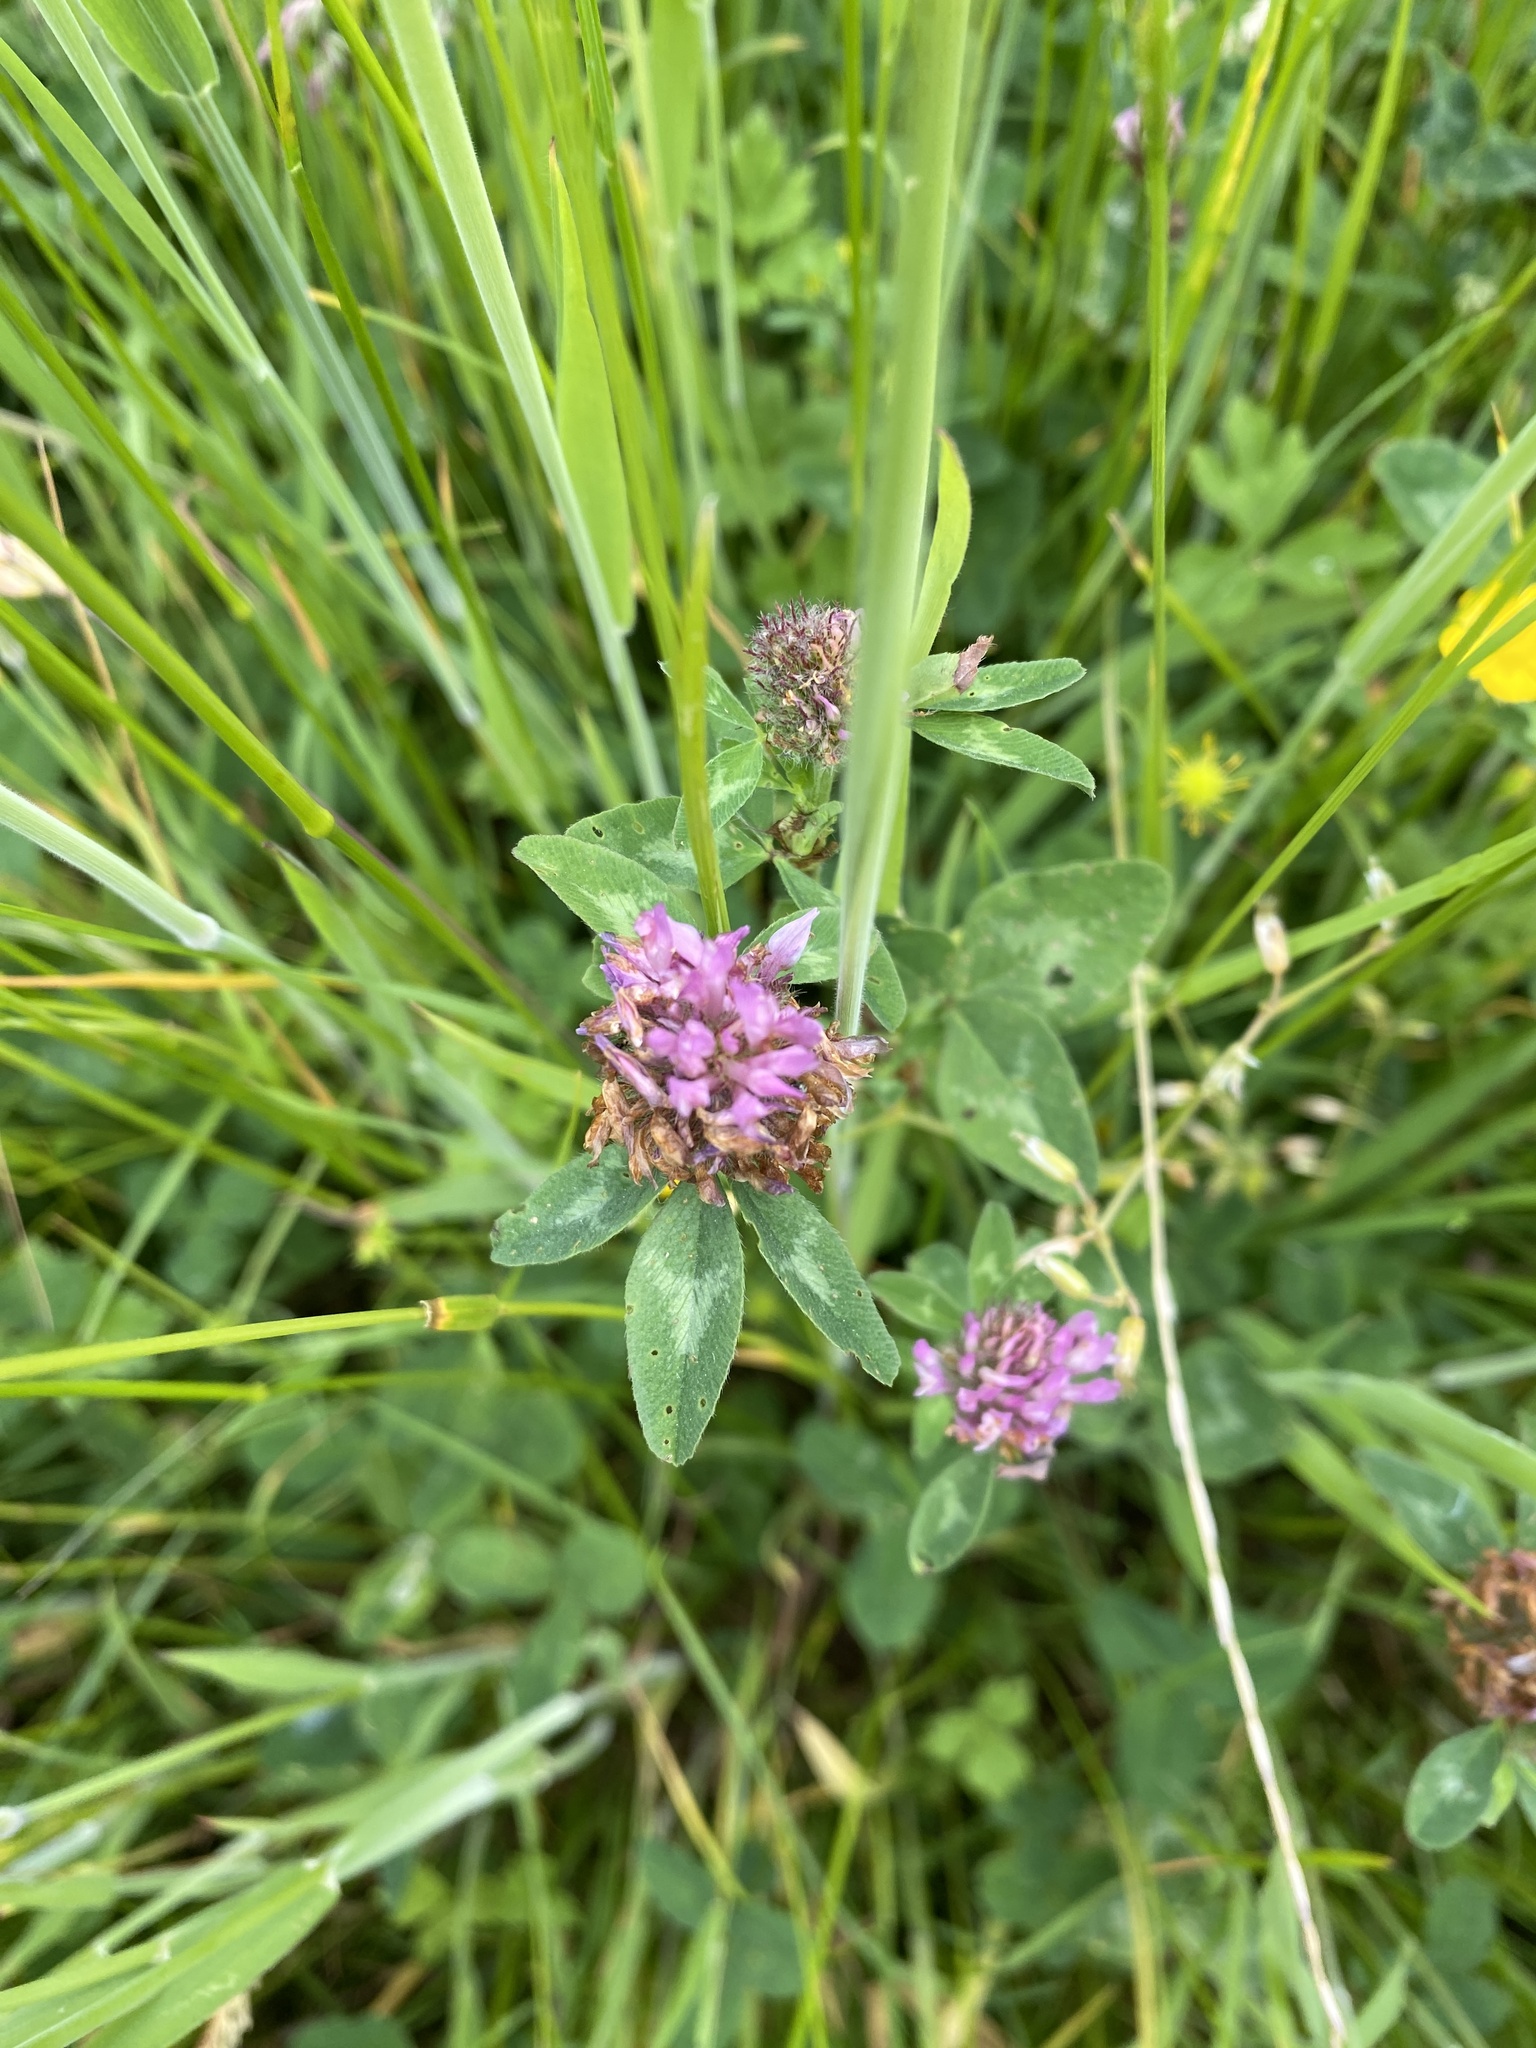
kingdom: Plantae
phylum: Tracheophyta
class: Magnoliopsida
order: Fabales
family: Fabaceae
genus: Trifolium
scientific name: Trifolium pratense
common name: Red clover
